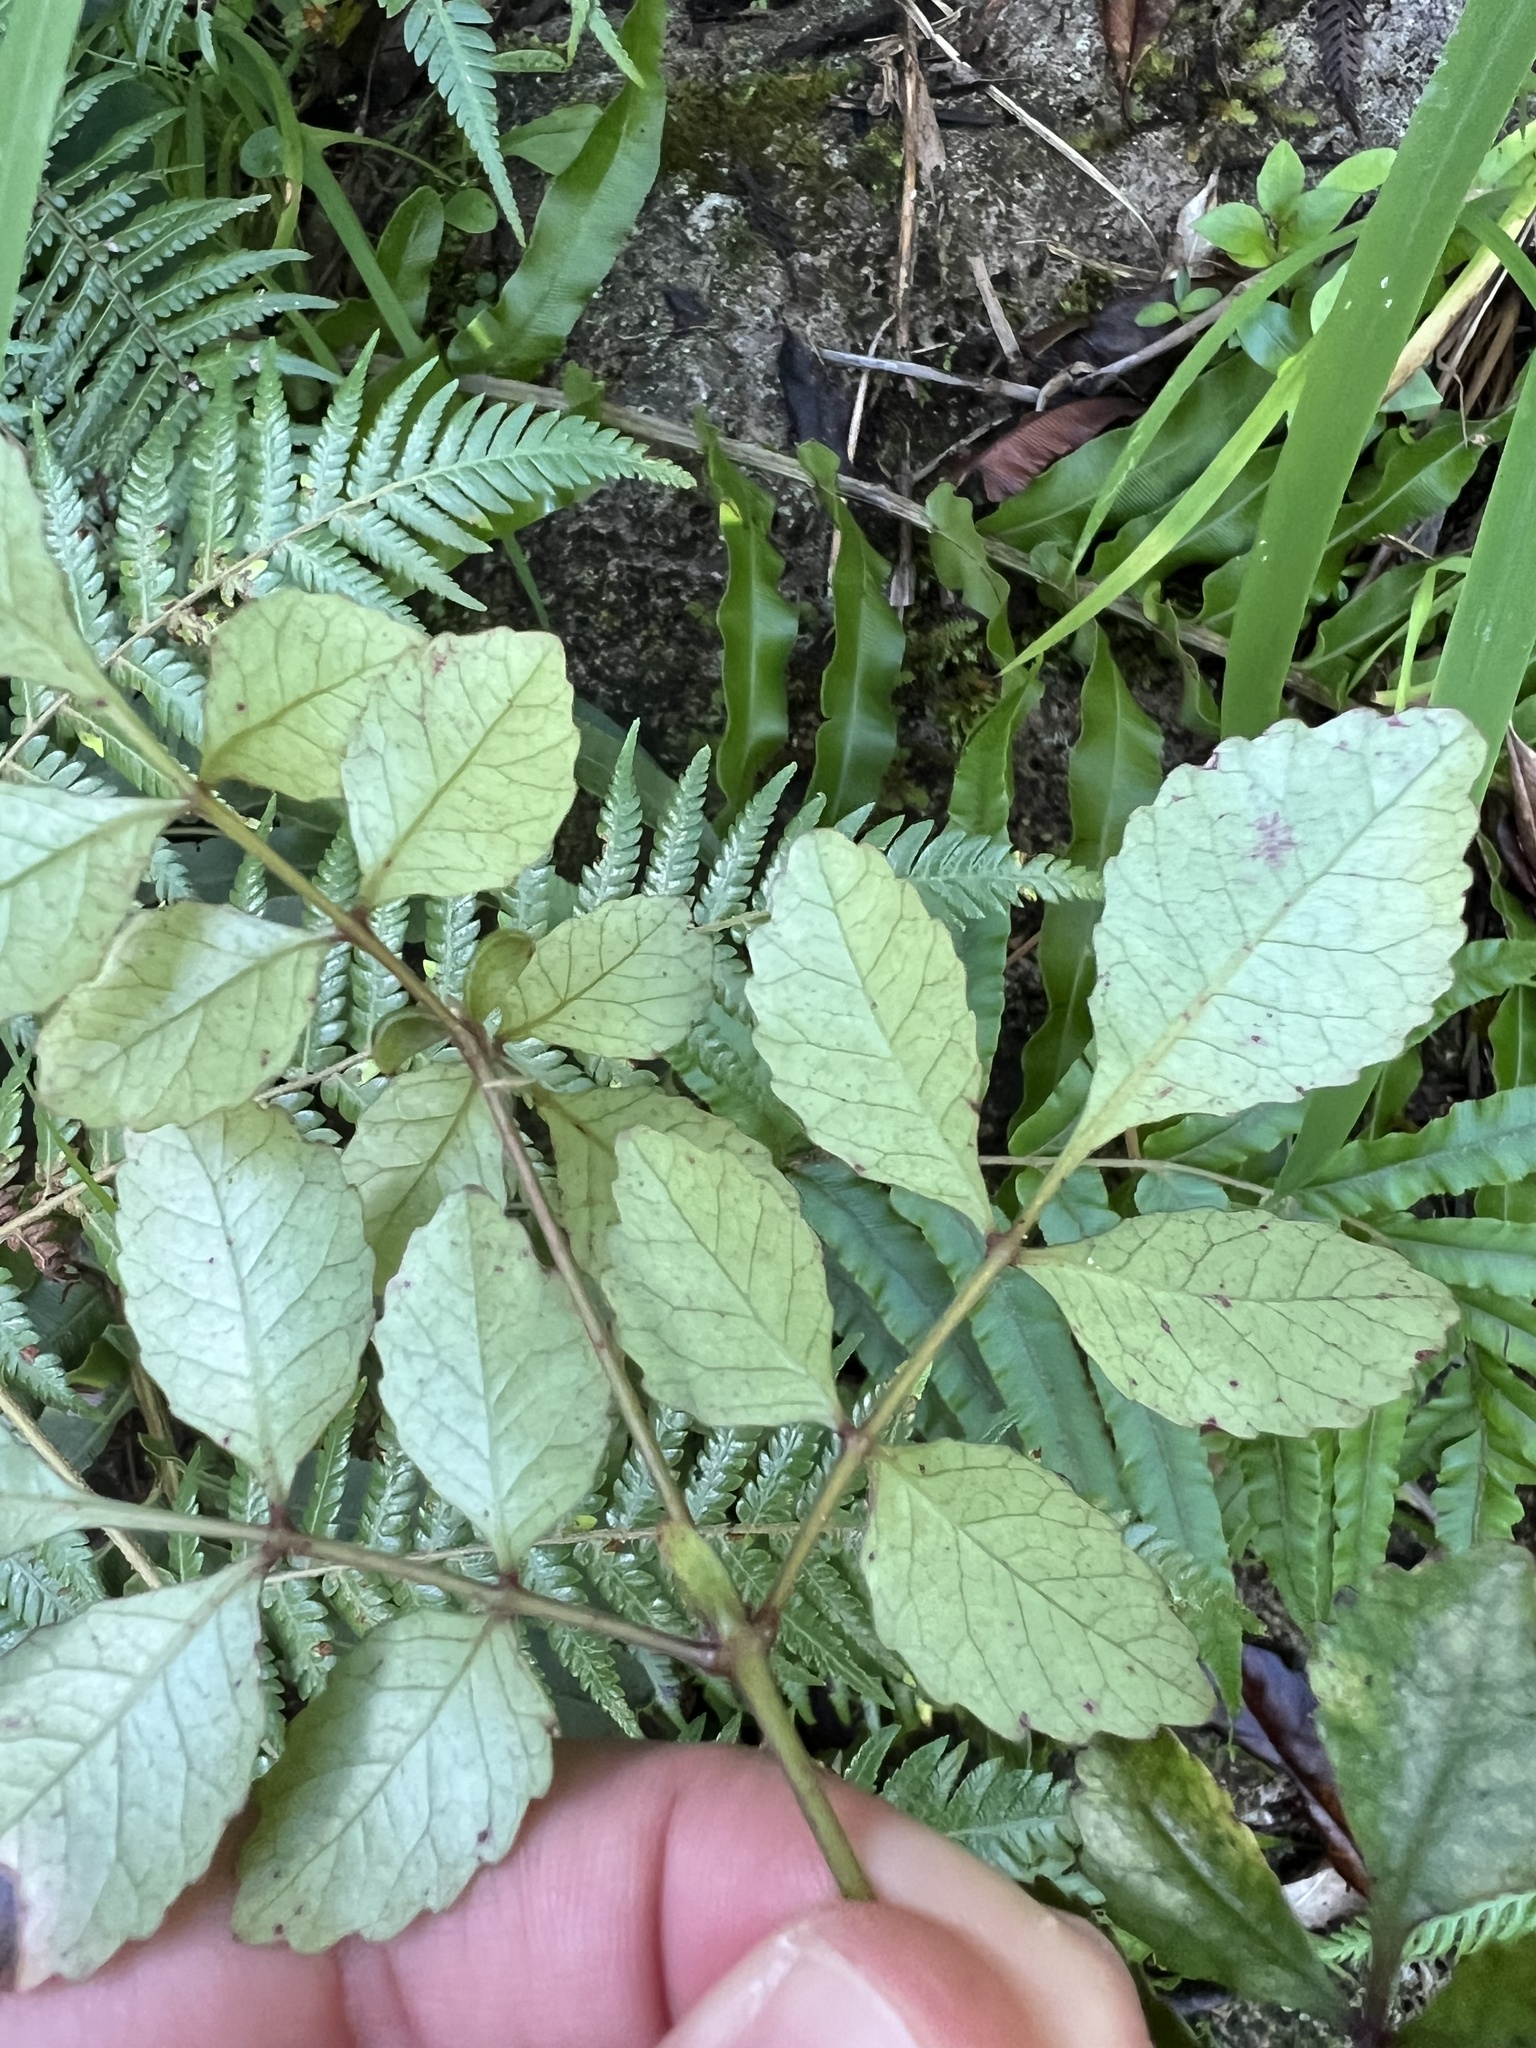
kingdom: Plantae
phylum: Tracheophyta
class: Magnoliopsida
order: Oxalidales
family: Cunoniaceae
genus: Pterophylla
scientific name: Pterophylla sylvicola
